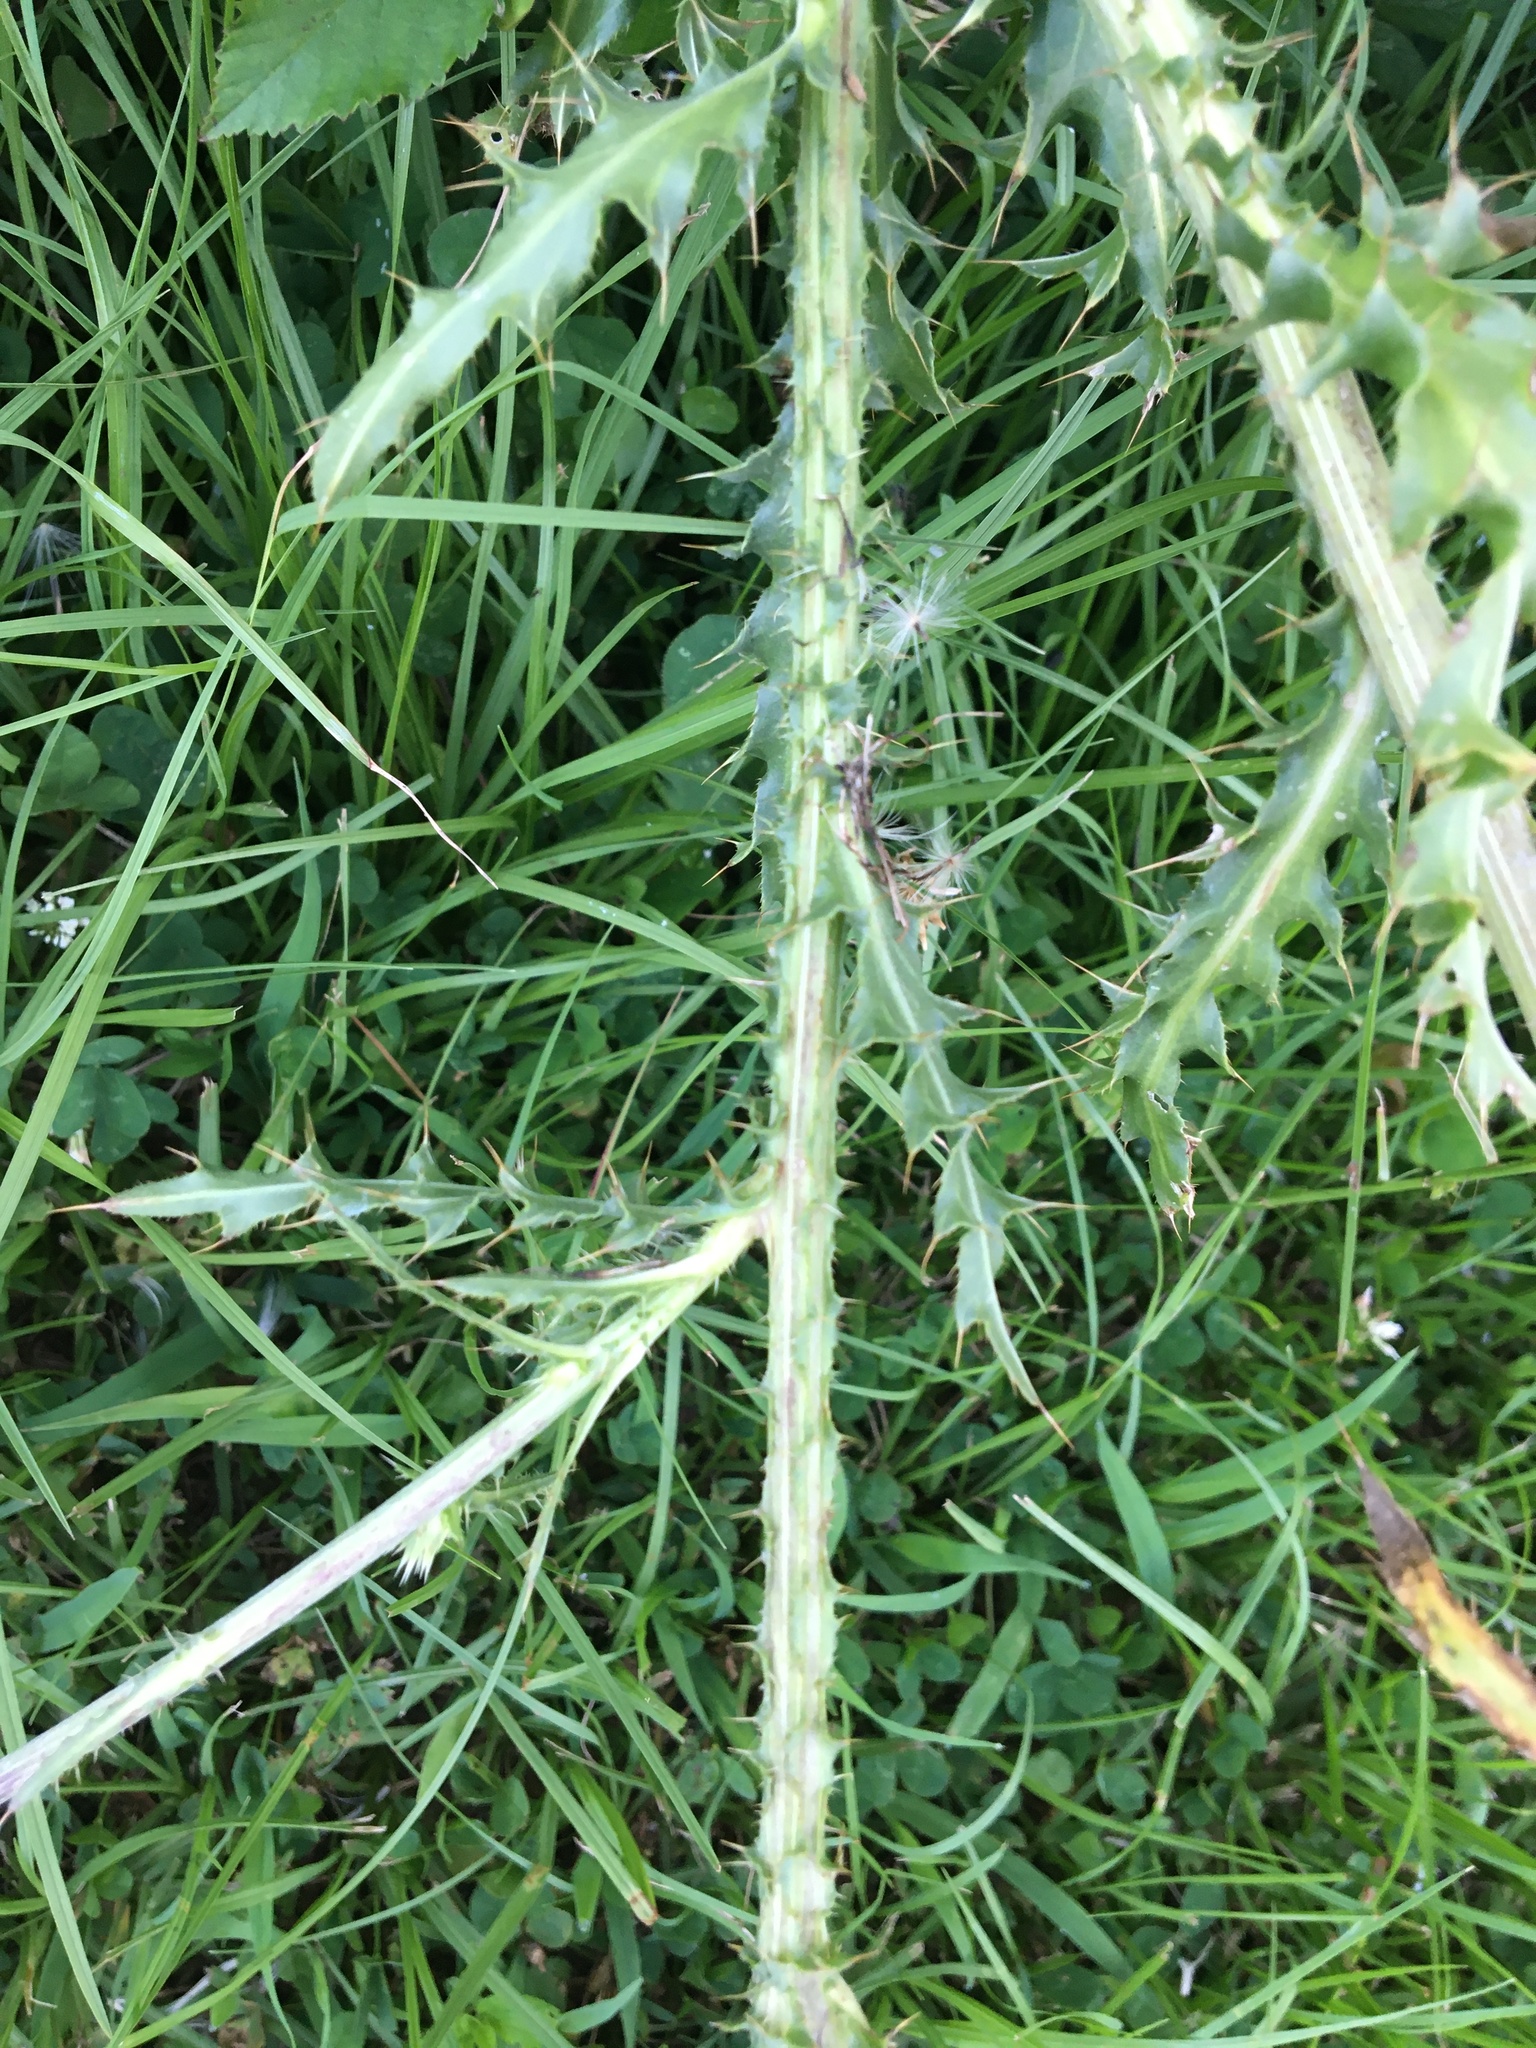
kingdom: Plantae
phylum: Tracheophyta
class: Magnoliopsida
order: Asterales
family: Asteraceae
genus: Carduus
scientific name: Carduus nutans
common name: Musk thistle
